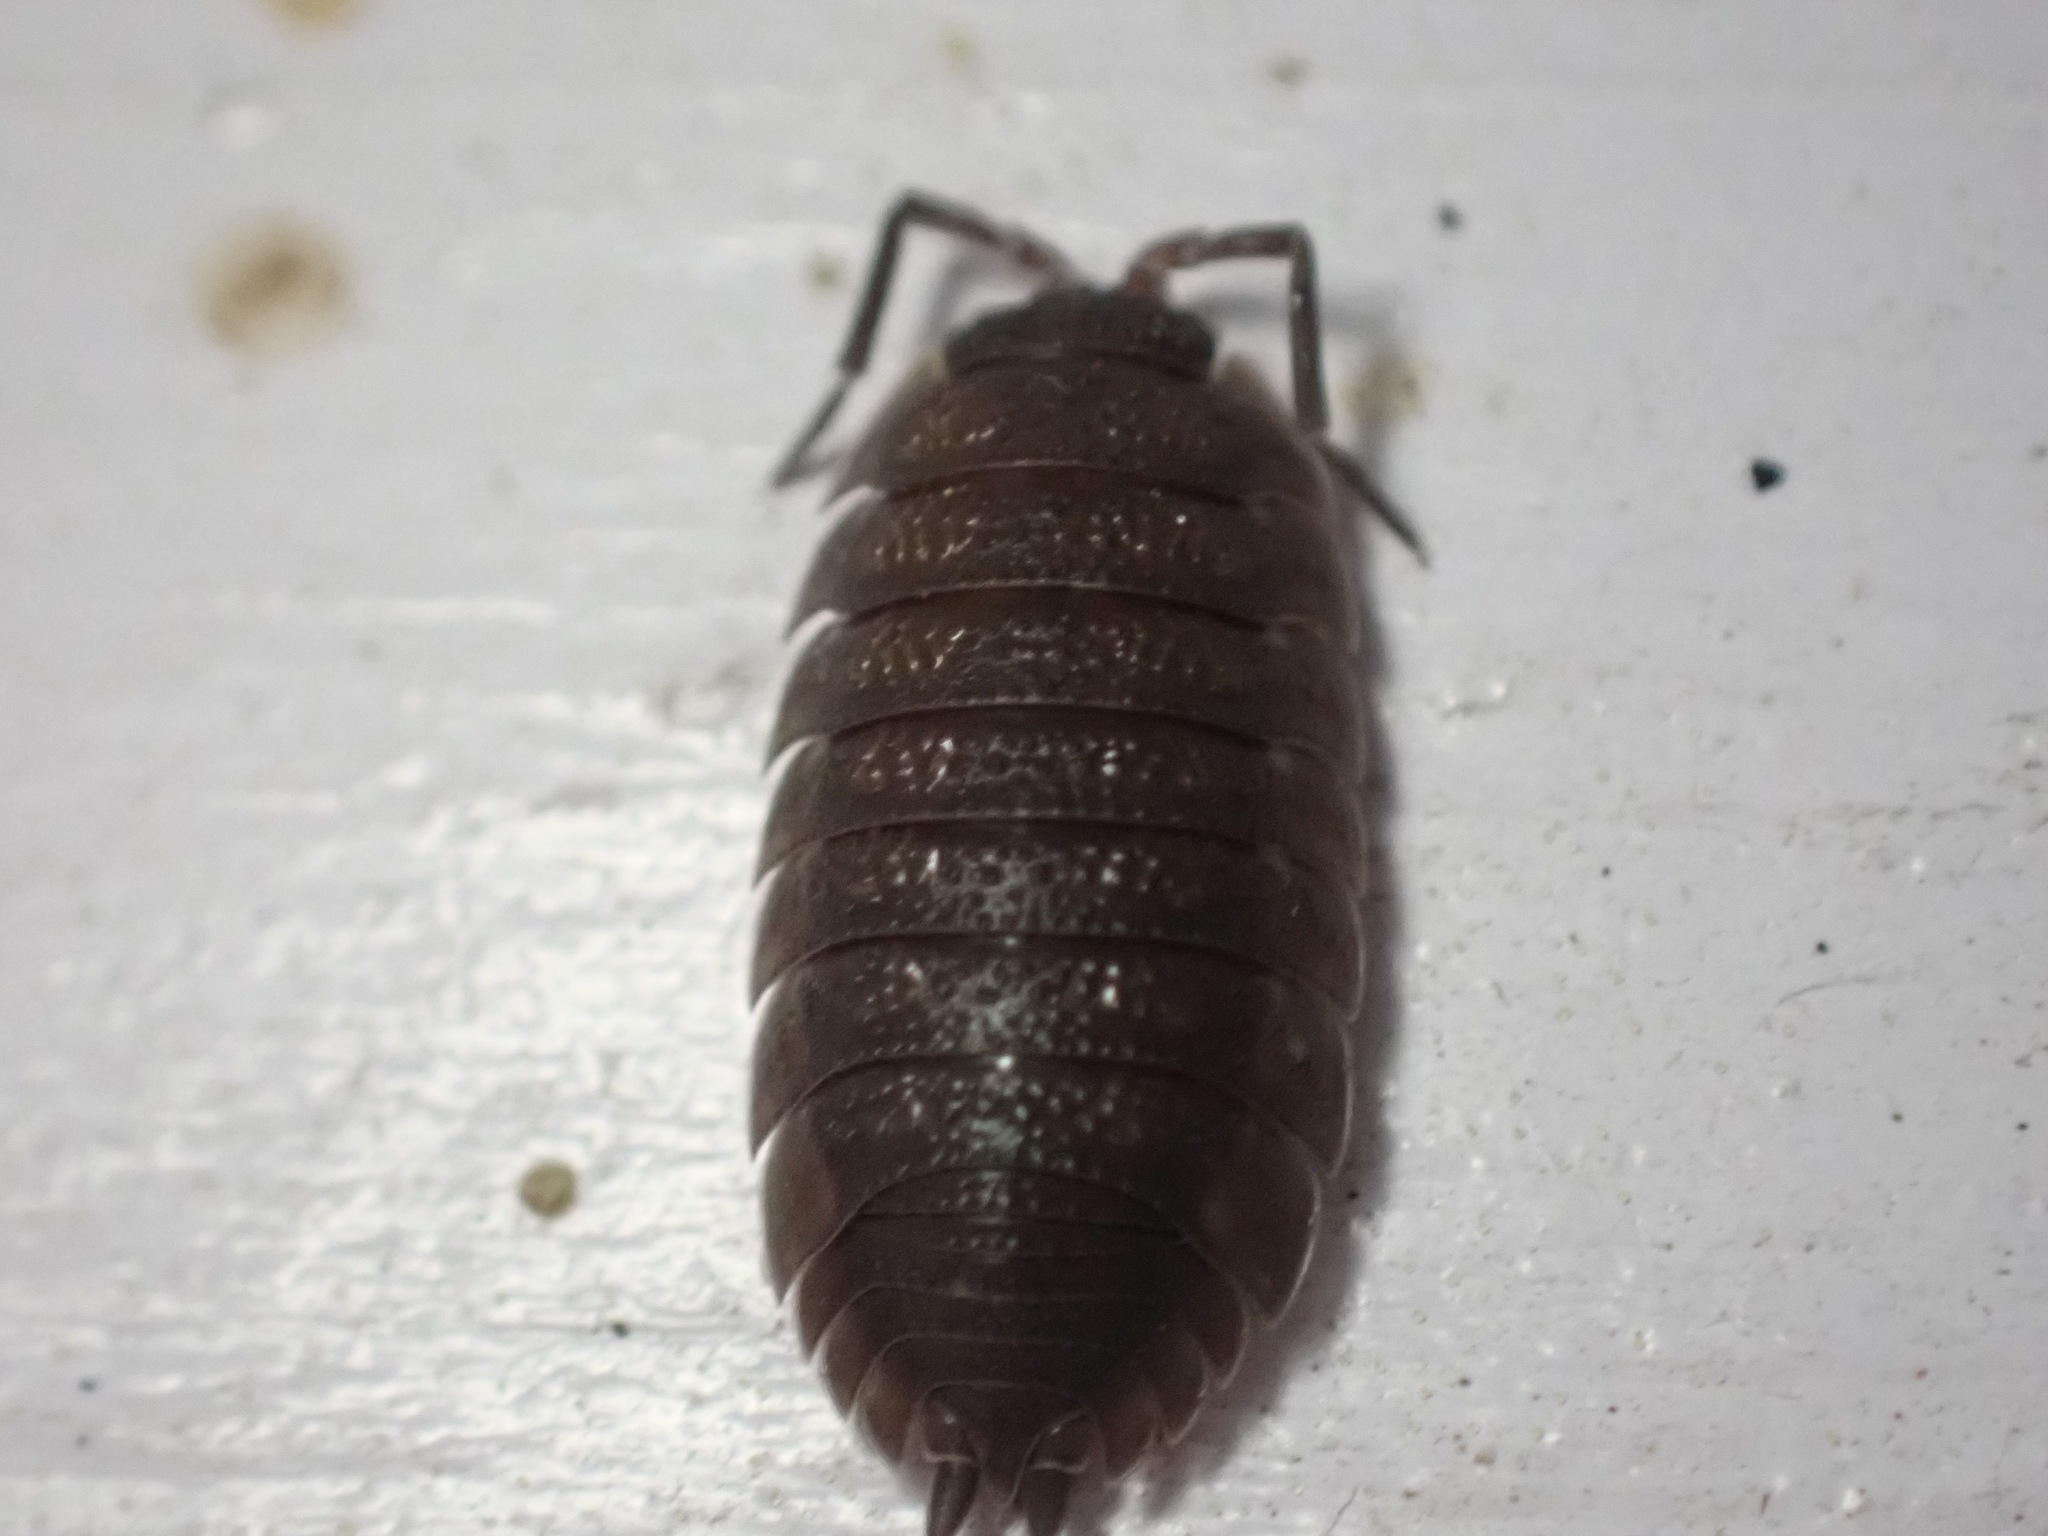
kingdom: Animalia
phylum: Arthropoda
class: Malacostraca
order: Isopoda
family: Porcellionidae
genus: Porcellio
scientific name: Porcellio scaber
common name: Common rough woodlouse
